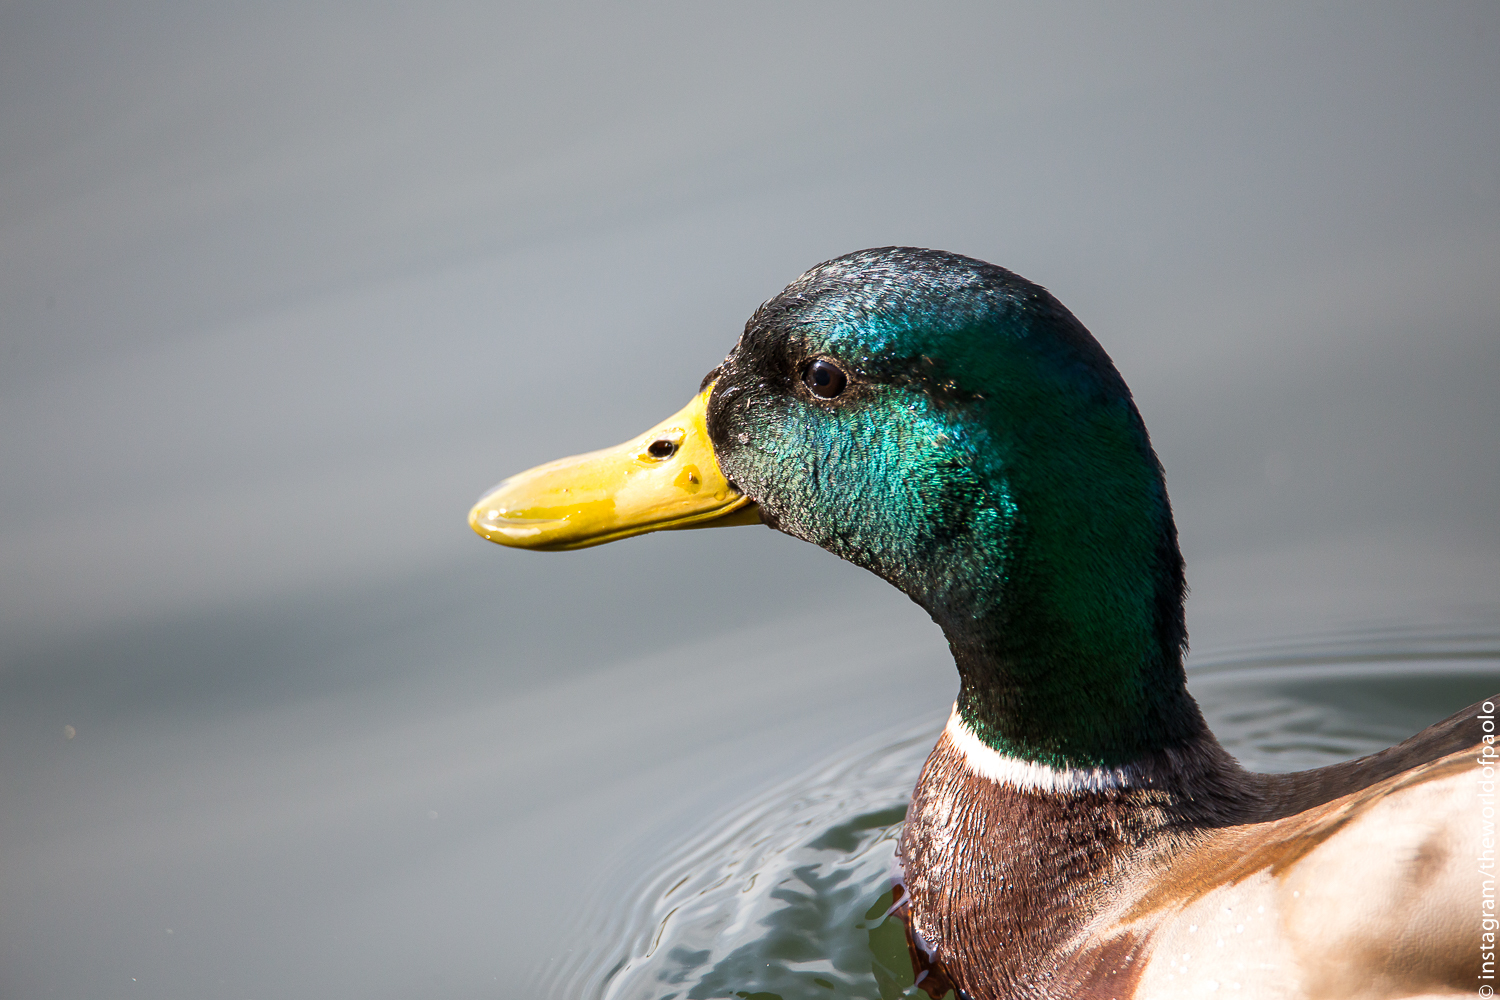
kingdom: Animalia
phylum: Chordata
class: Aves
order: Anseriformes
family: Anatidae
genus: Anas
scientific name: Anas platyrhynchos
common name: Mallard
